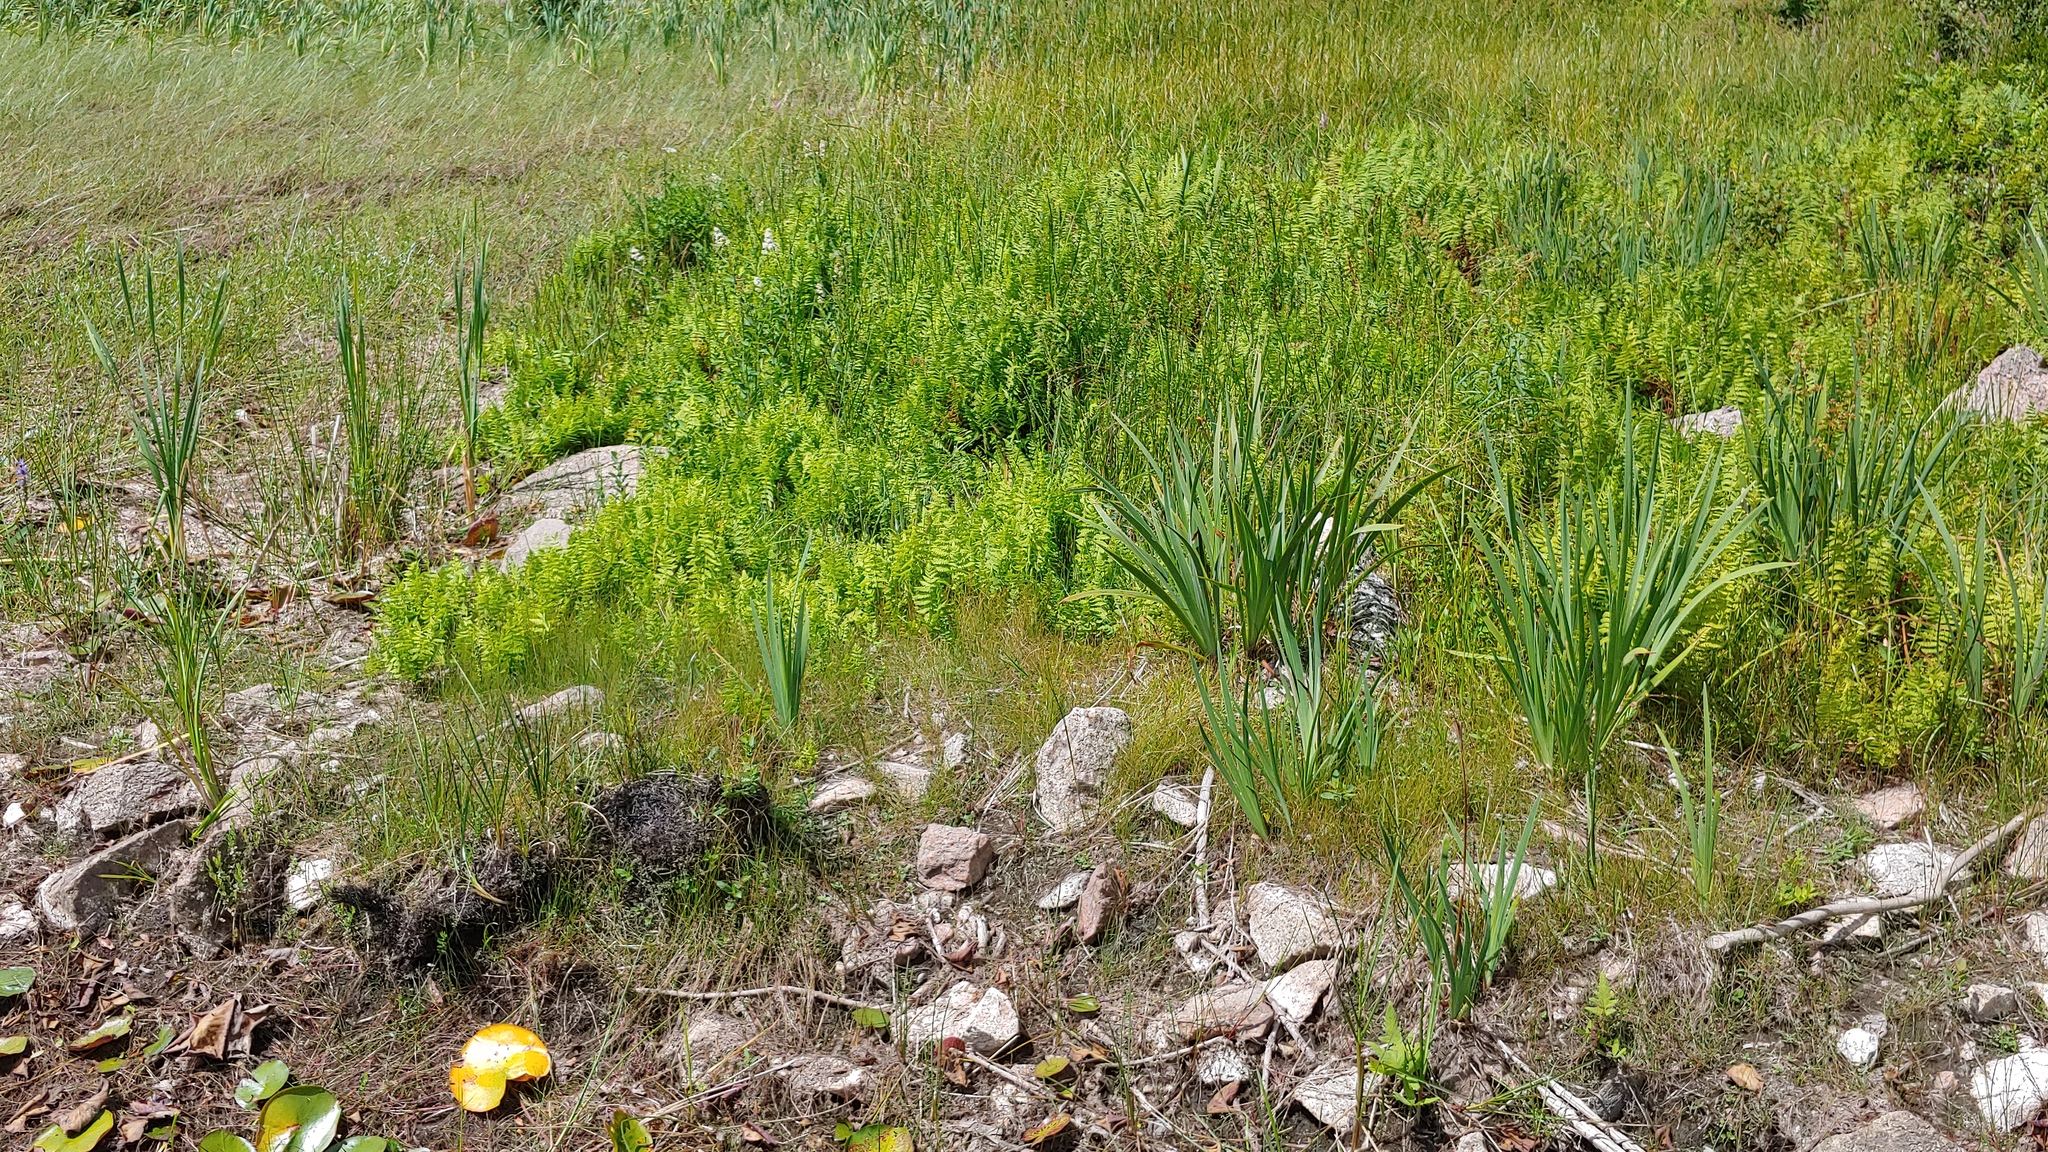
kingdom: Plantae
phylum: Tracheophyta
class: Polypodiopsida
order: Polypodiales
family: Thelypteridaceae
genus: Thelypteris
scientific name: Thelypteris palustris
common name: Marsh fern
